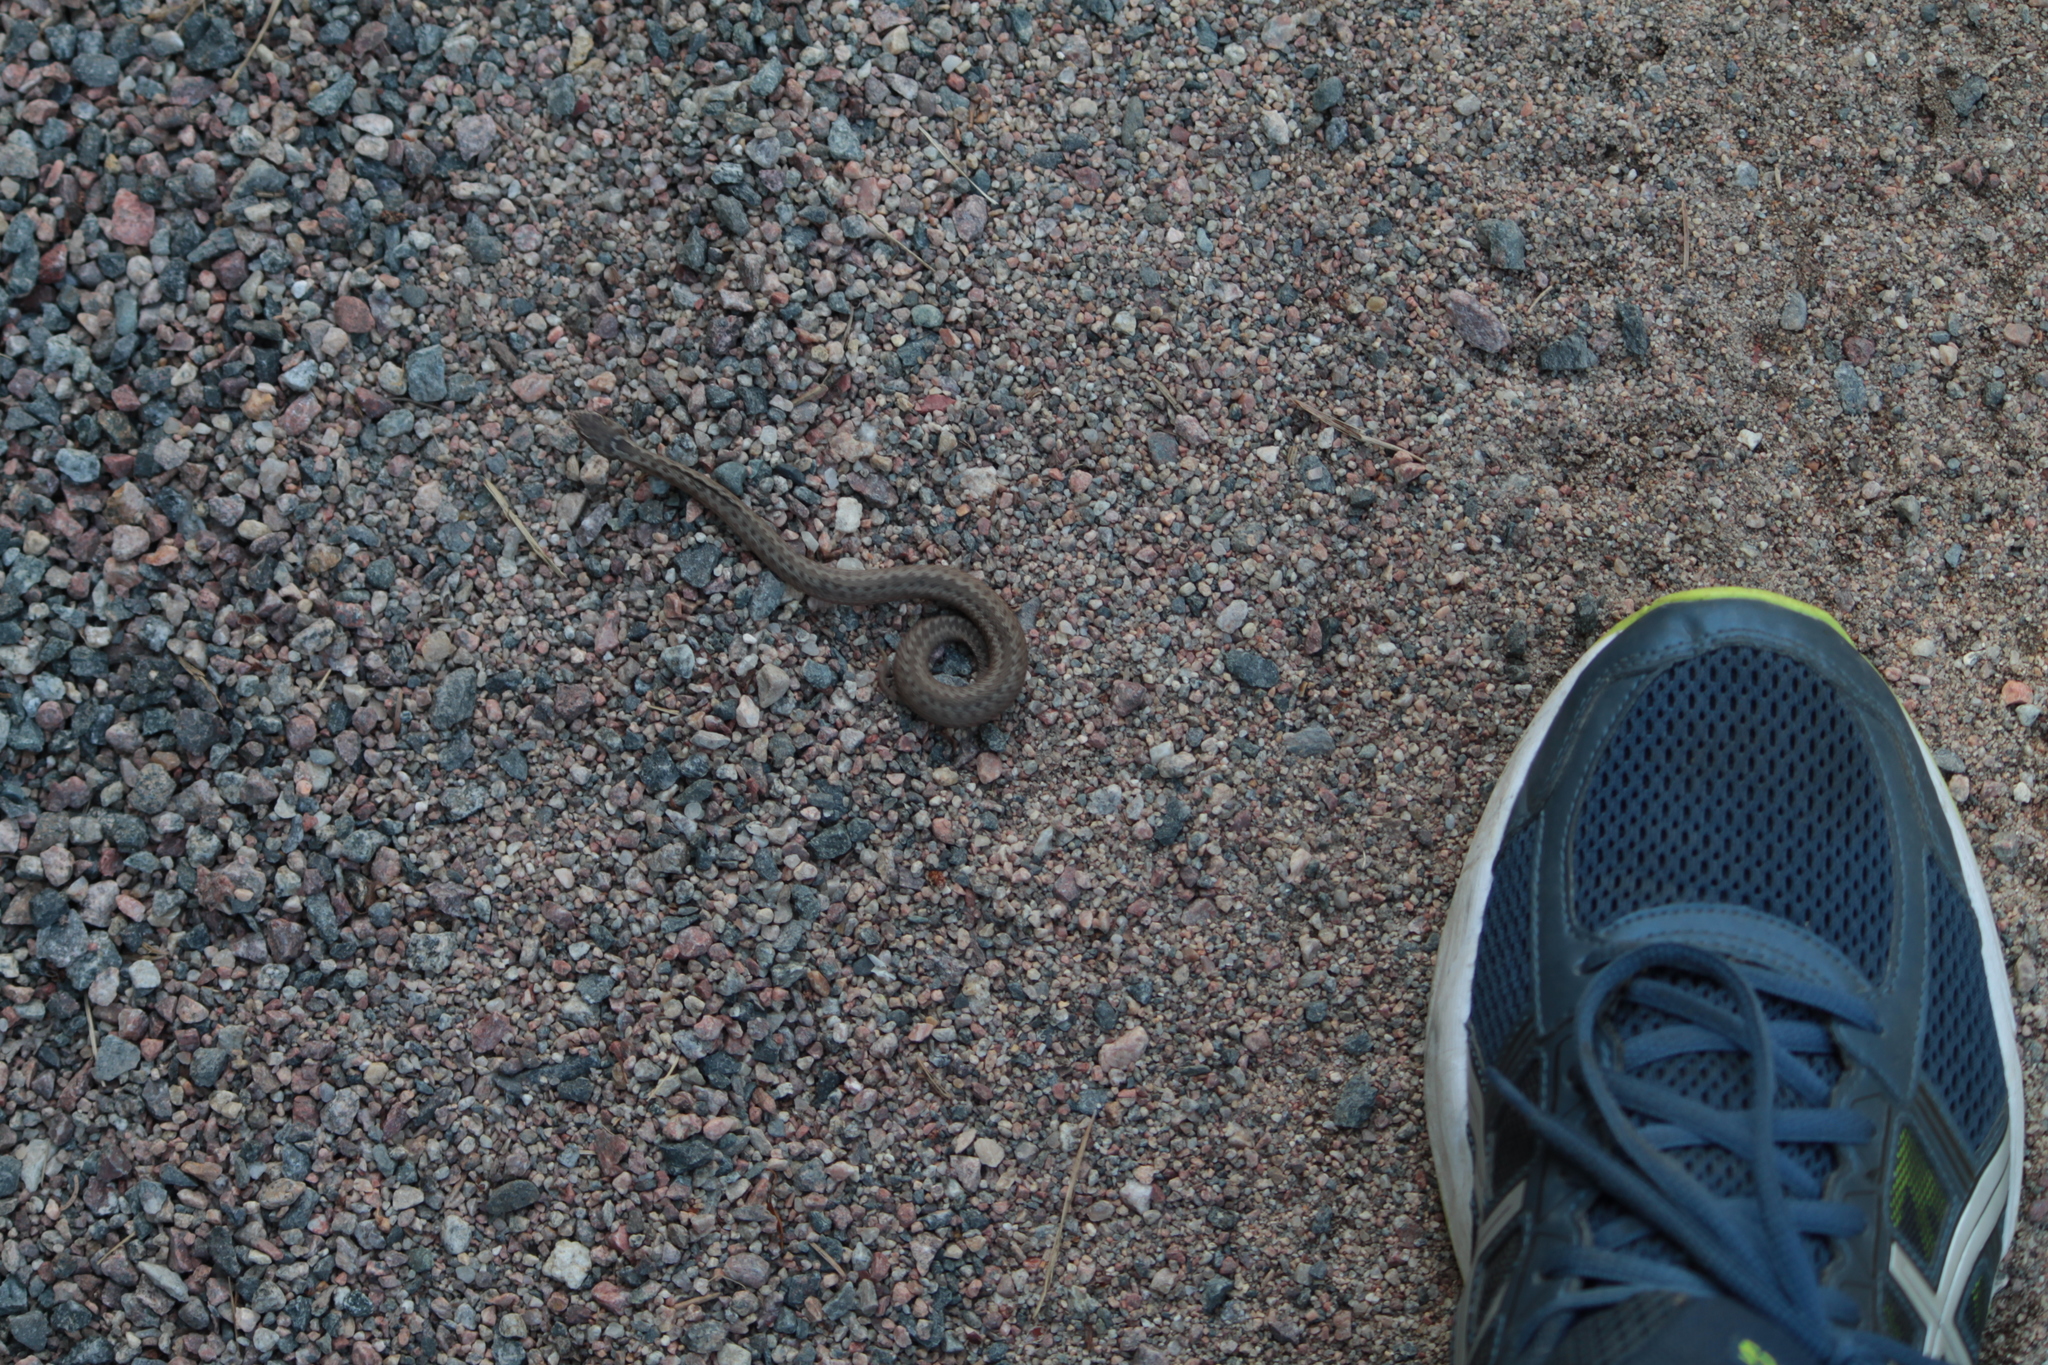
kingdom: Animalia
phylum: Chordata
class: Squamata
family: Viperidae
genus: Vipera
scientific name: Vipera berus
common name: Adder
